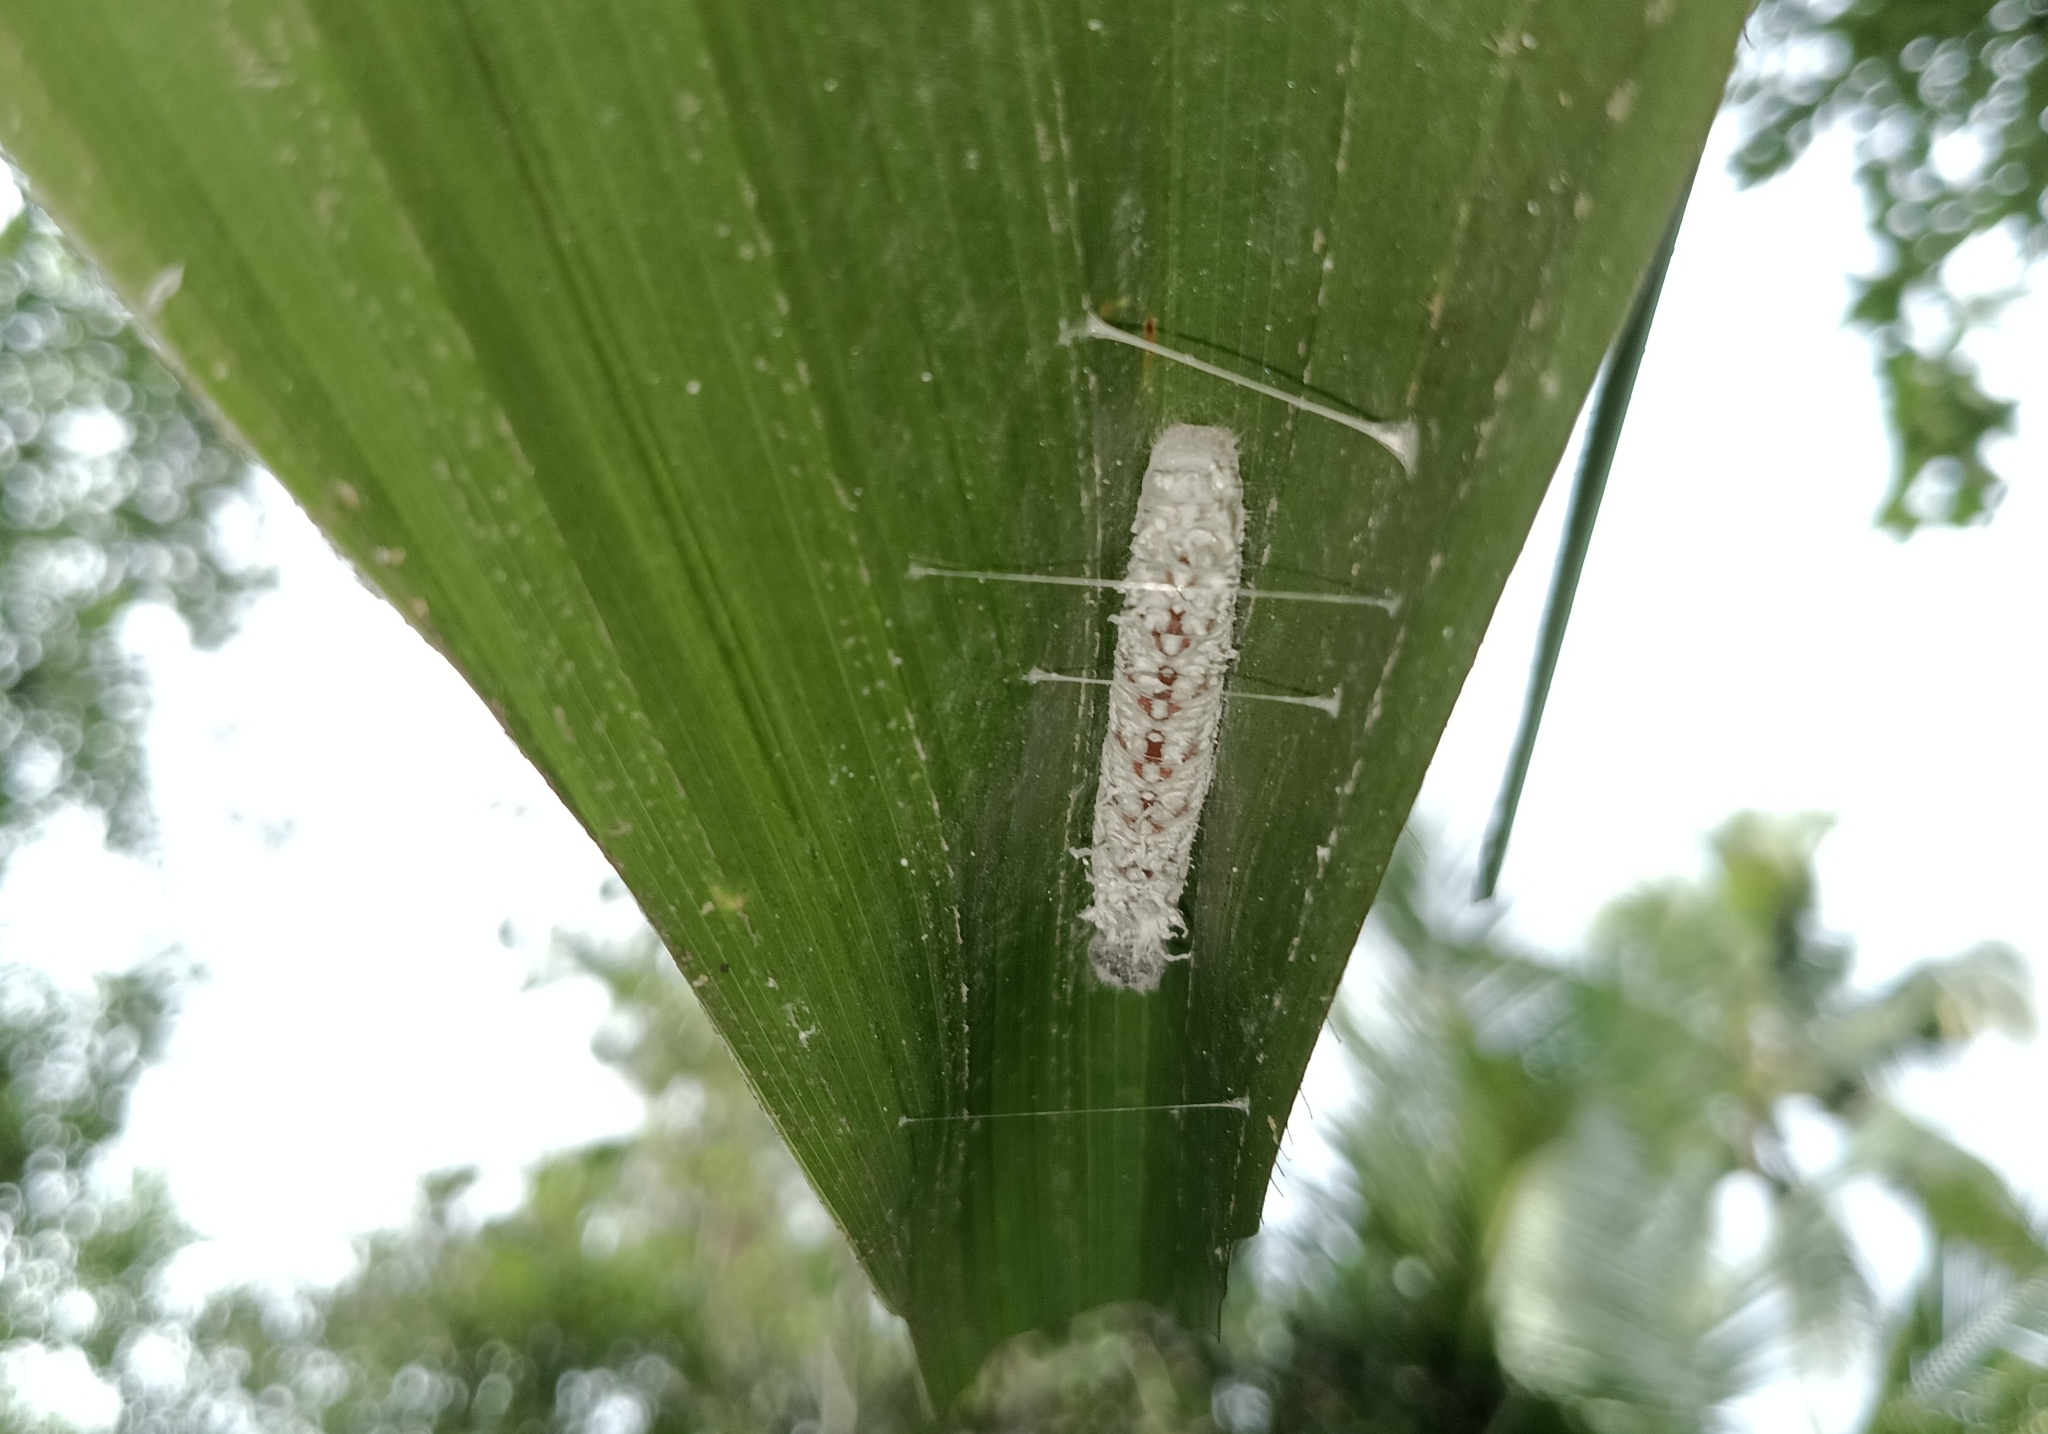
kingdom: Animalia
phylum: Arthropoda
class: Insecta
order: Lepidoptera
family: Hesperiidae
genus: Gangara
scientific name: Gangara thyrsis
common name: Giant redeye
